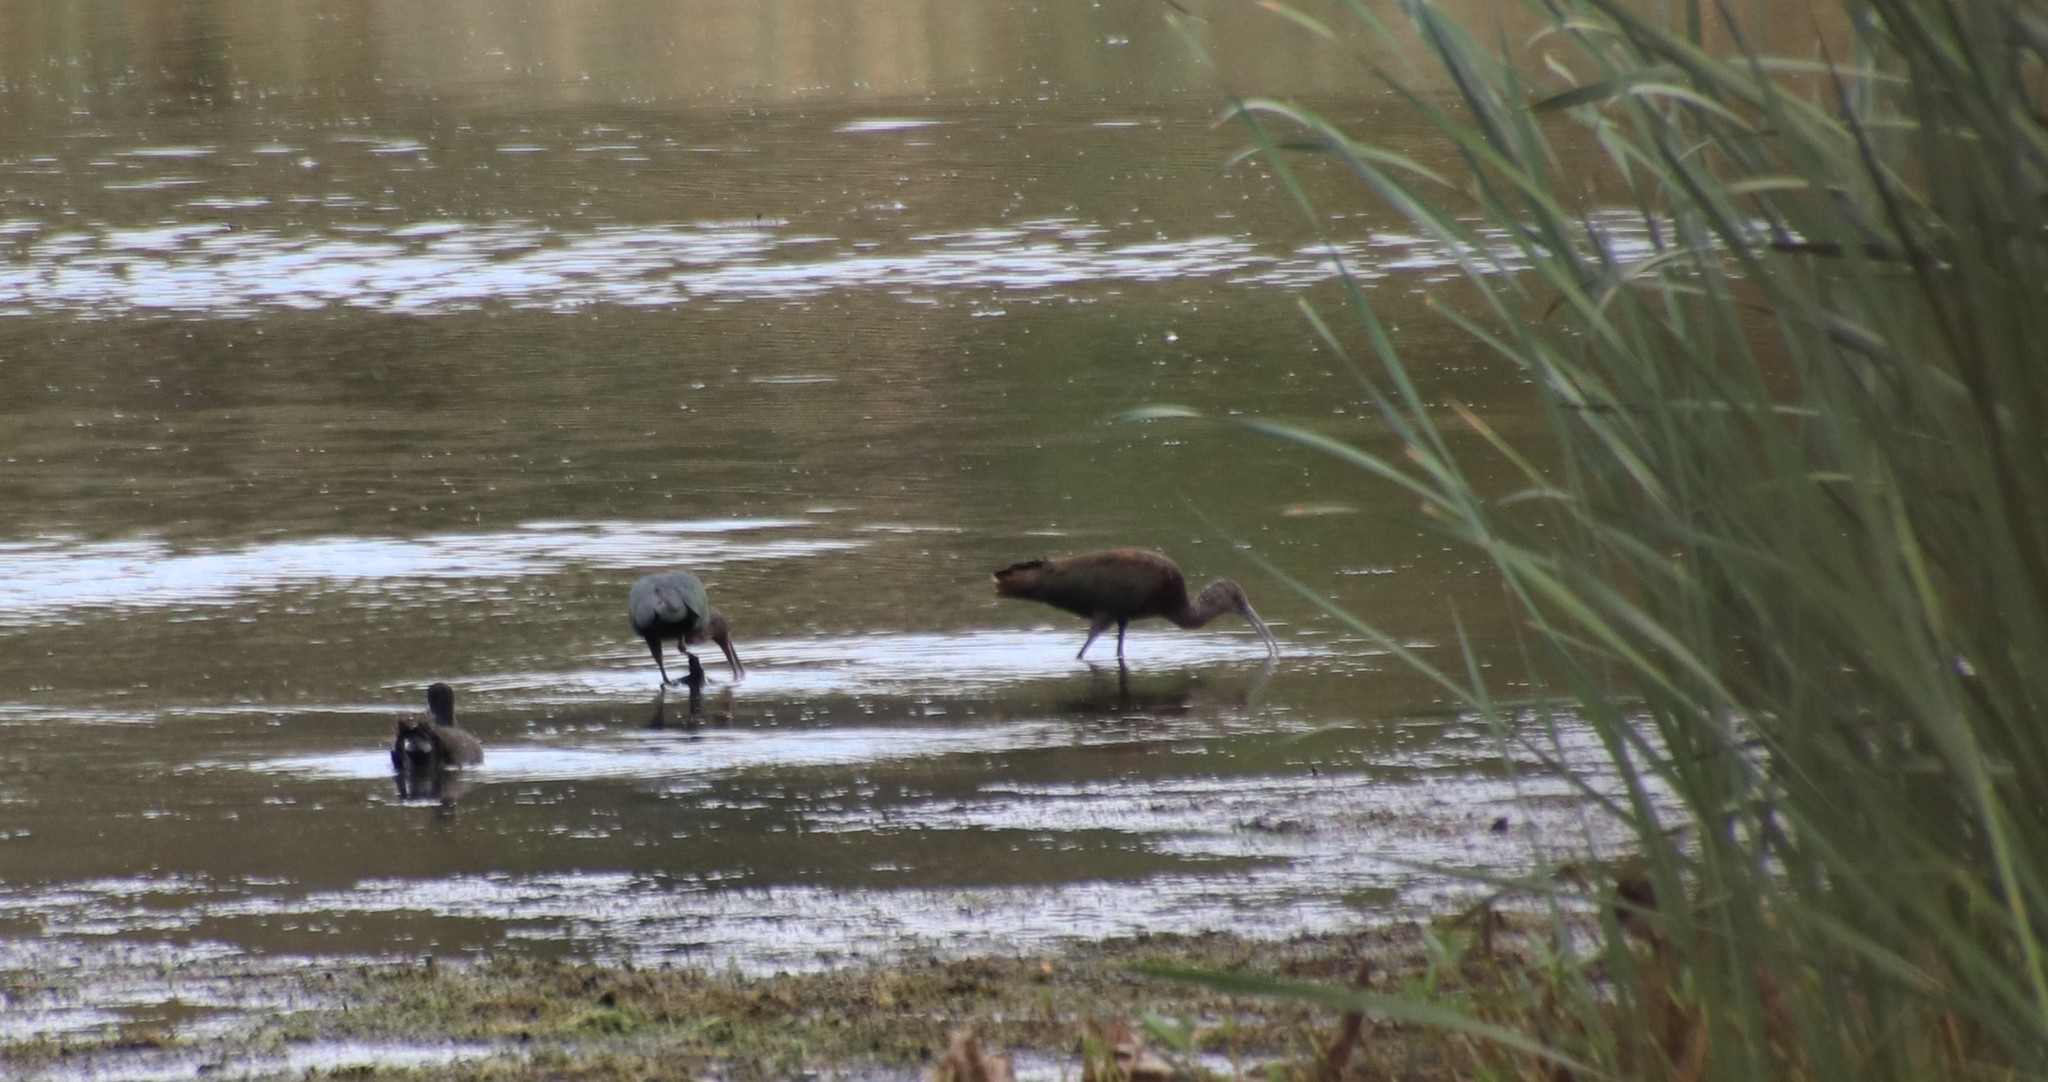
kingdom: Animalia
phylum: Chordata
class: Aves
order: Pelecaniformes
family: Threskiornithidae
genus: Plegadis
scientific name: Plegadis chihi
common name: White-faced ibis
